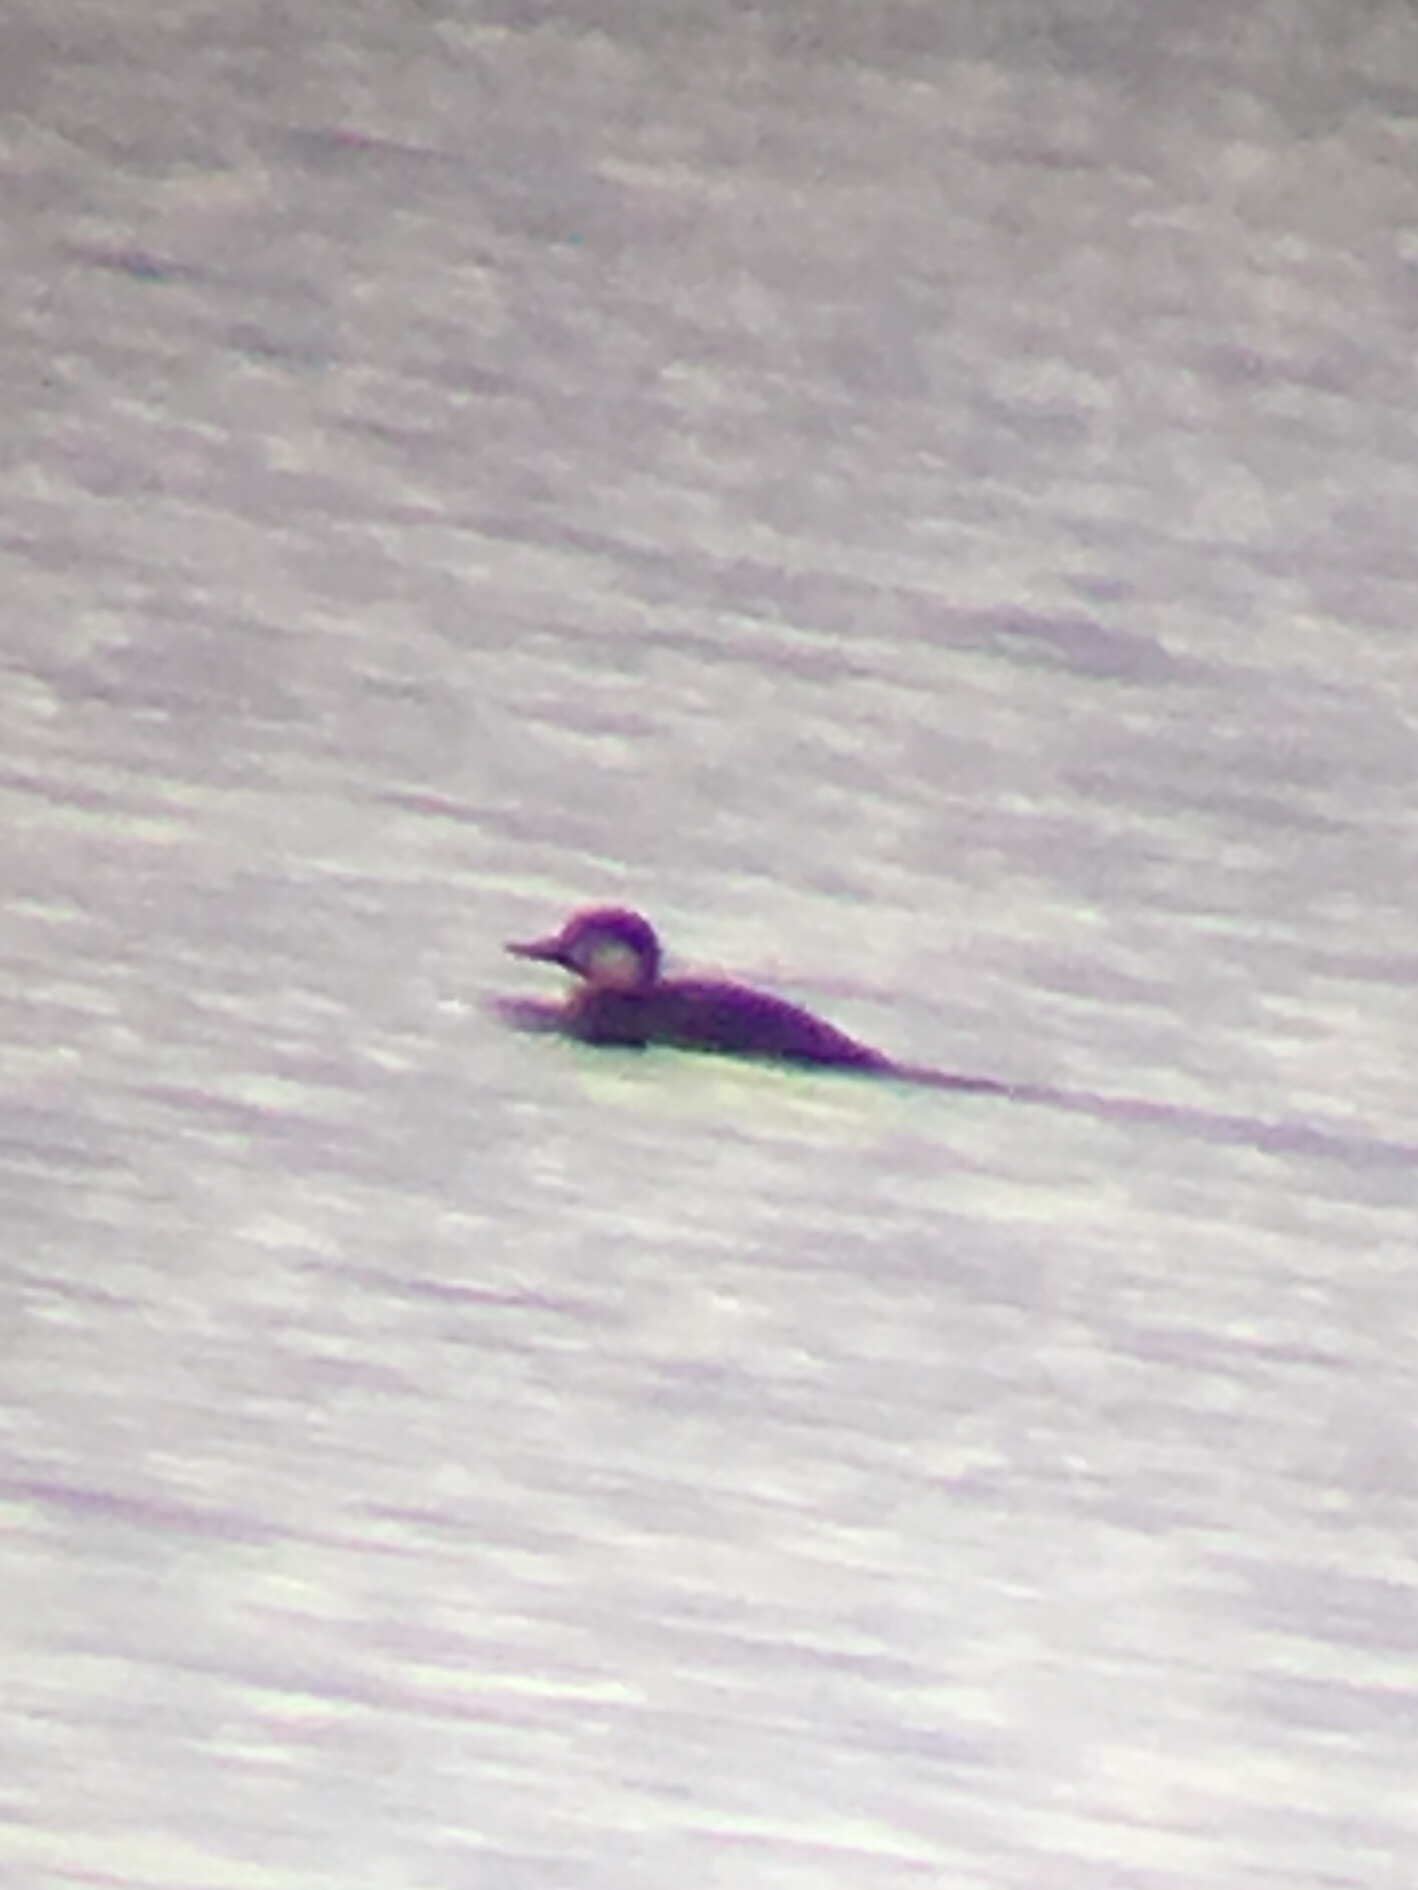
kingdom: Animalia
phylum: Chordata
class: Aves
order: Anseriformes
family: Anatidae
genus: Melanitta
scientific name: Melanitta americana
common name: Black scoter
